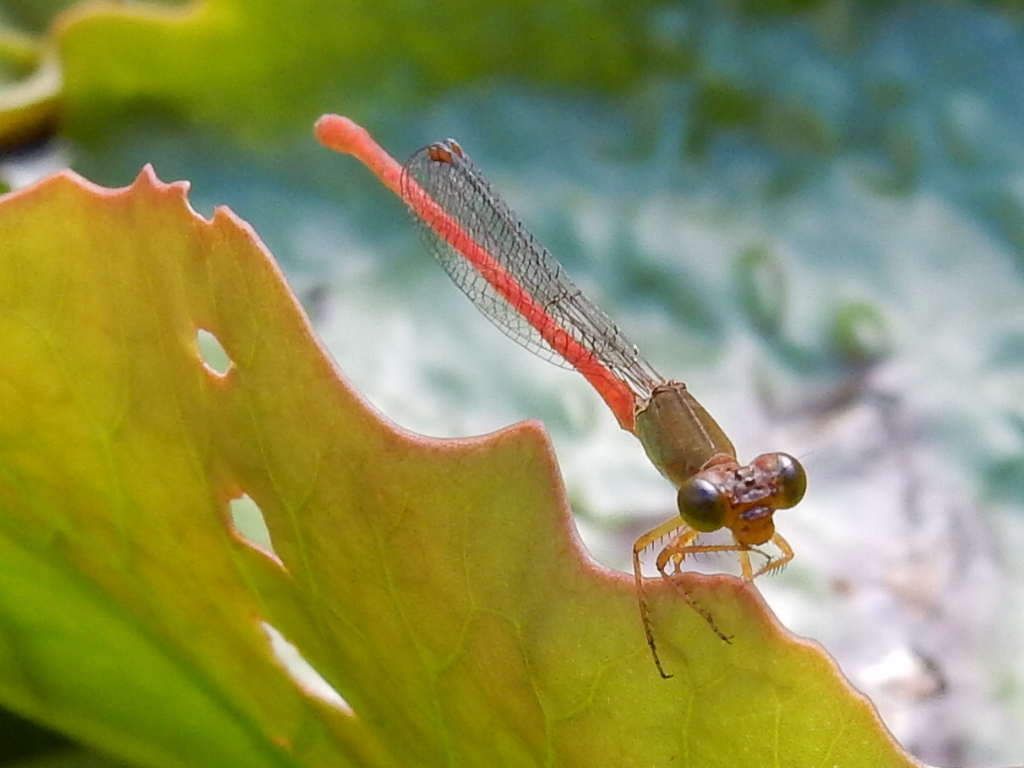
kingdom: Animalia
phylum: Arthropoda
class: Insecta
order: Odonata
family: Coenagrionidae
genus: Ceriagrion
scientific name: Ceriagrion aeruginosum
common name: Redtail
